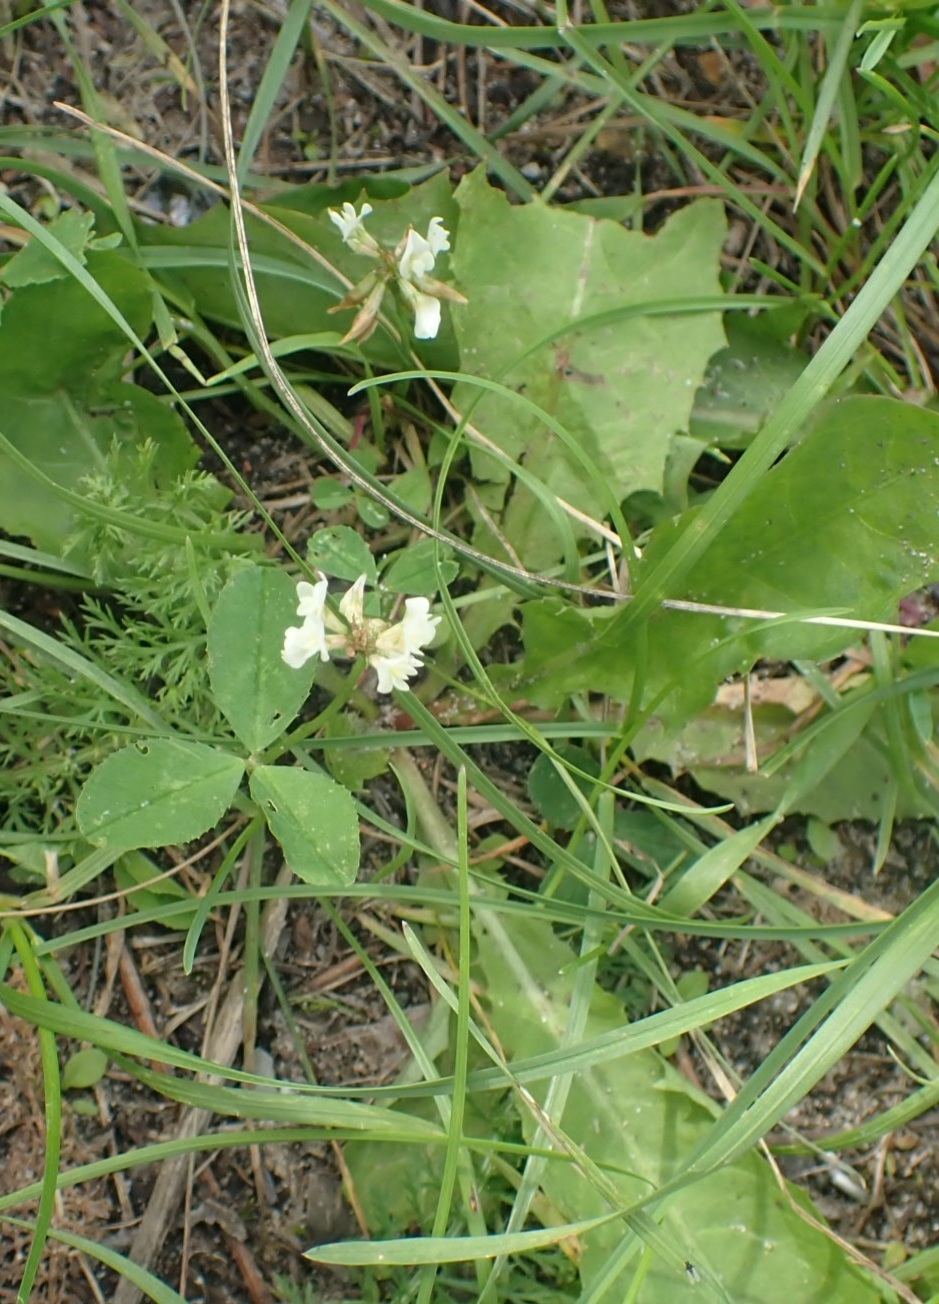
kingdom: Plantae
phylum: Tracheophyta
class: Magnoliopsida
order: Fabales
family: Fabaceae
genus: Trifolium
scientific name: Trifolium repens
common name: White clover
